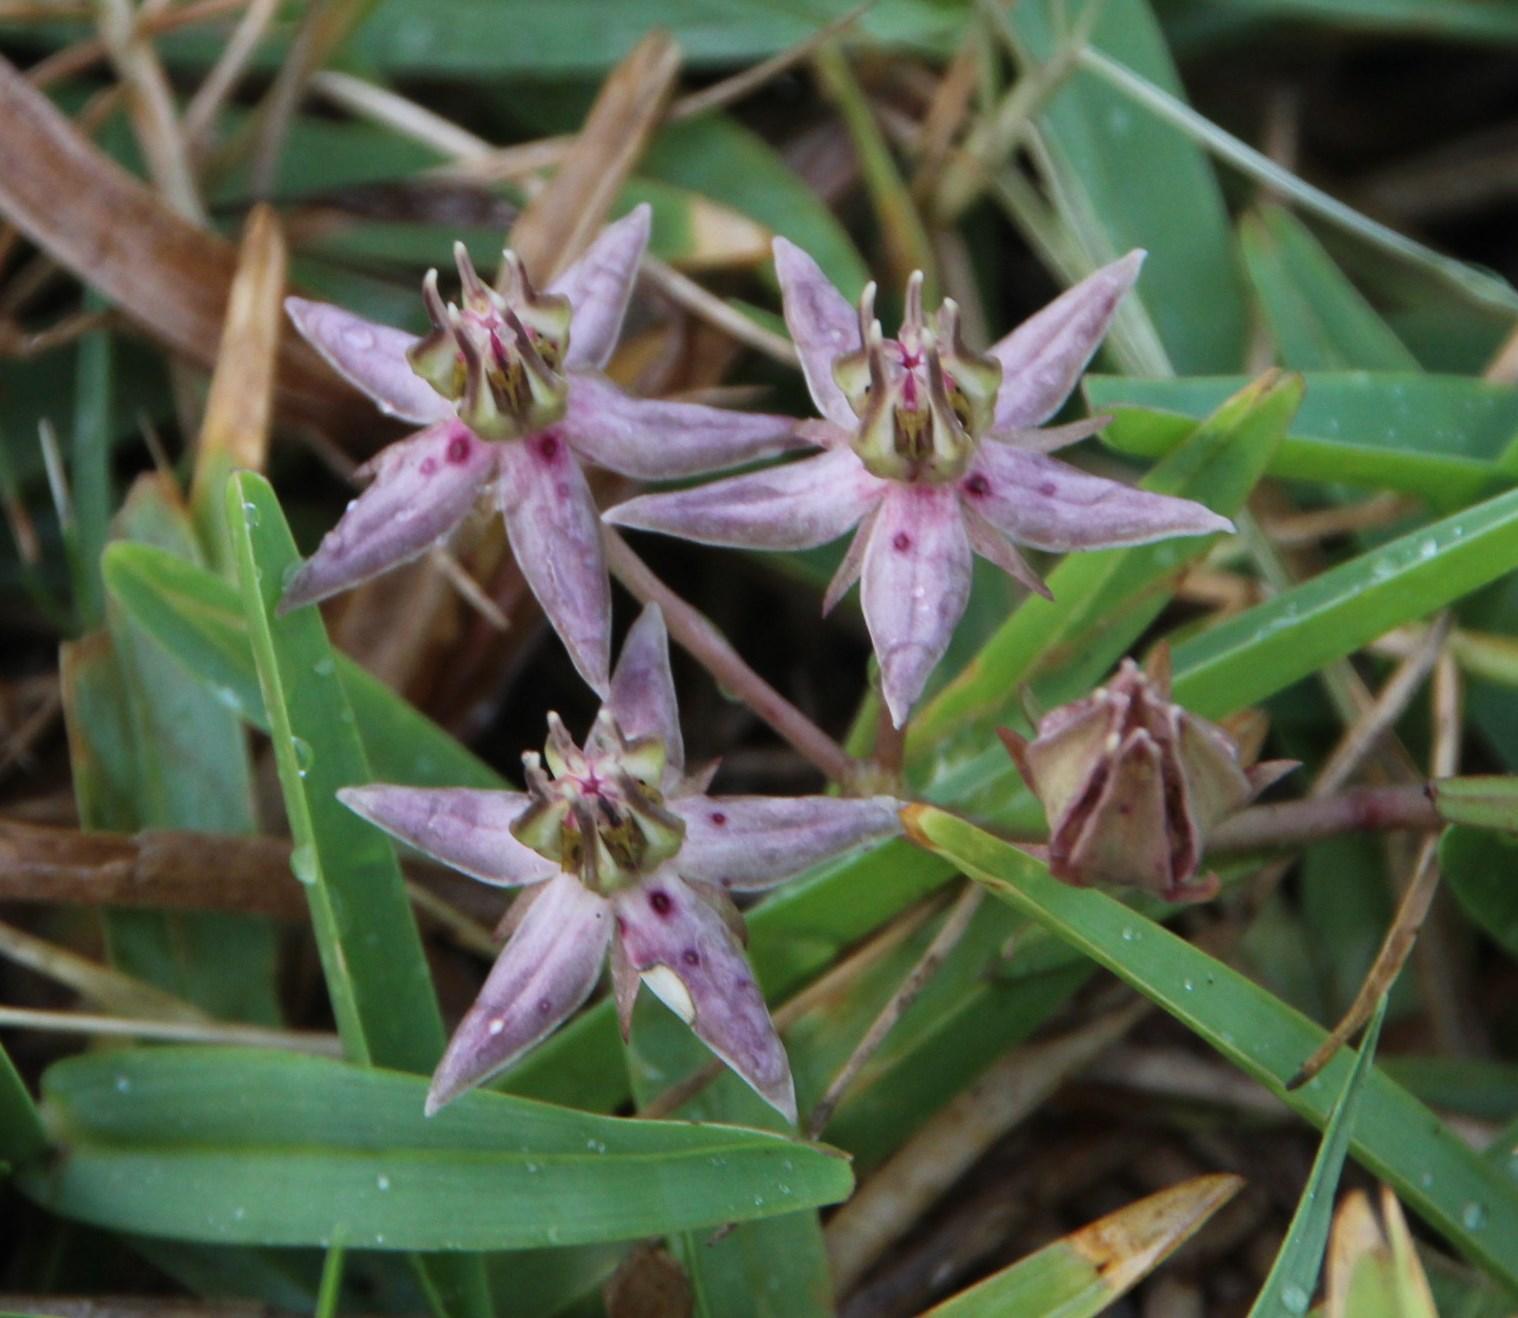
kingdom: Plantae
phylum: Tracheophyta
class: Magnoliopsida
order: Gentianales
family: Apocynaceae
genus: Asclepias
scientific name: Asclepias gibba
